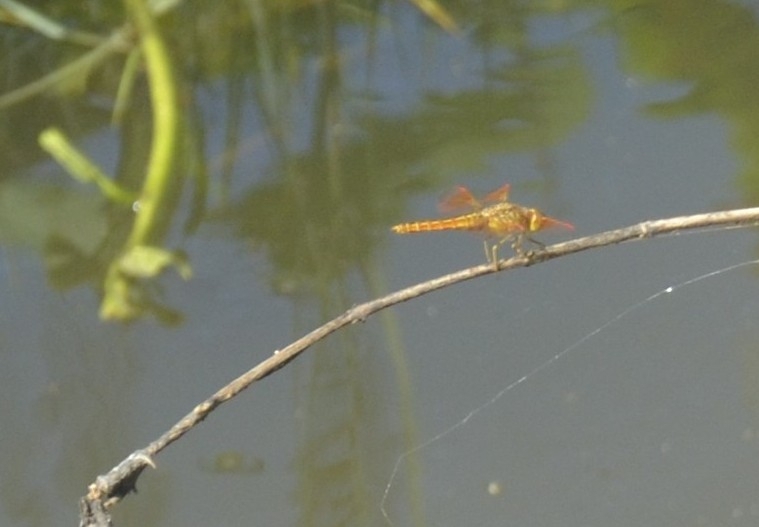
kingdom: Animalia
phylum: Arthropoda
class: Insecta
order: Odonata
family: Libellulidae
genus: Brachythemis
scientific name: Brachythemis contaminata
